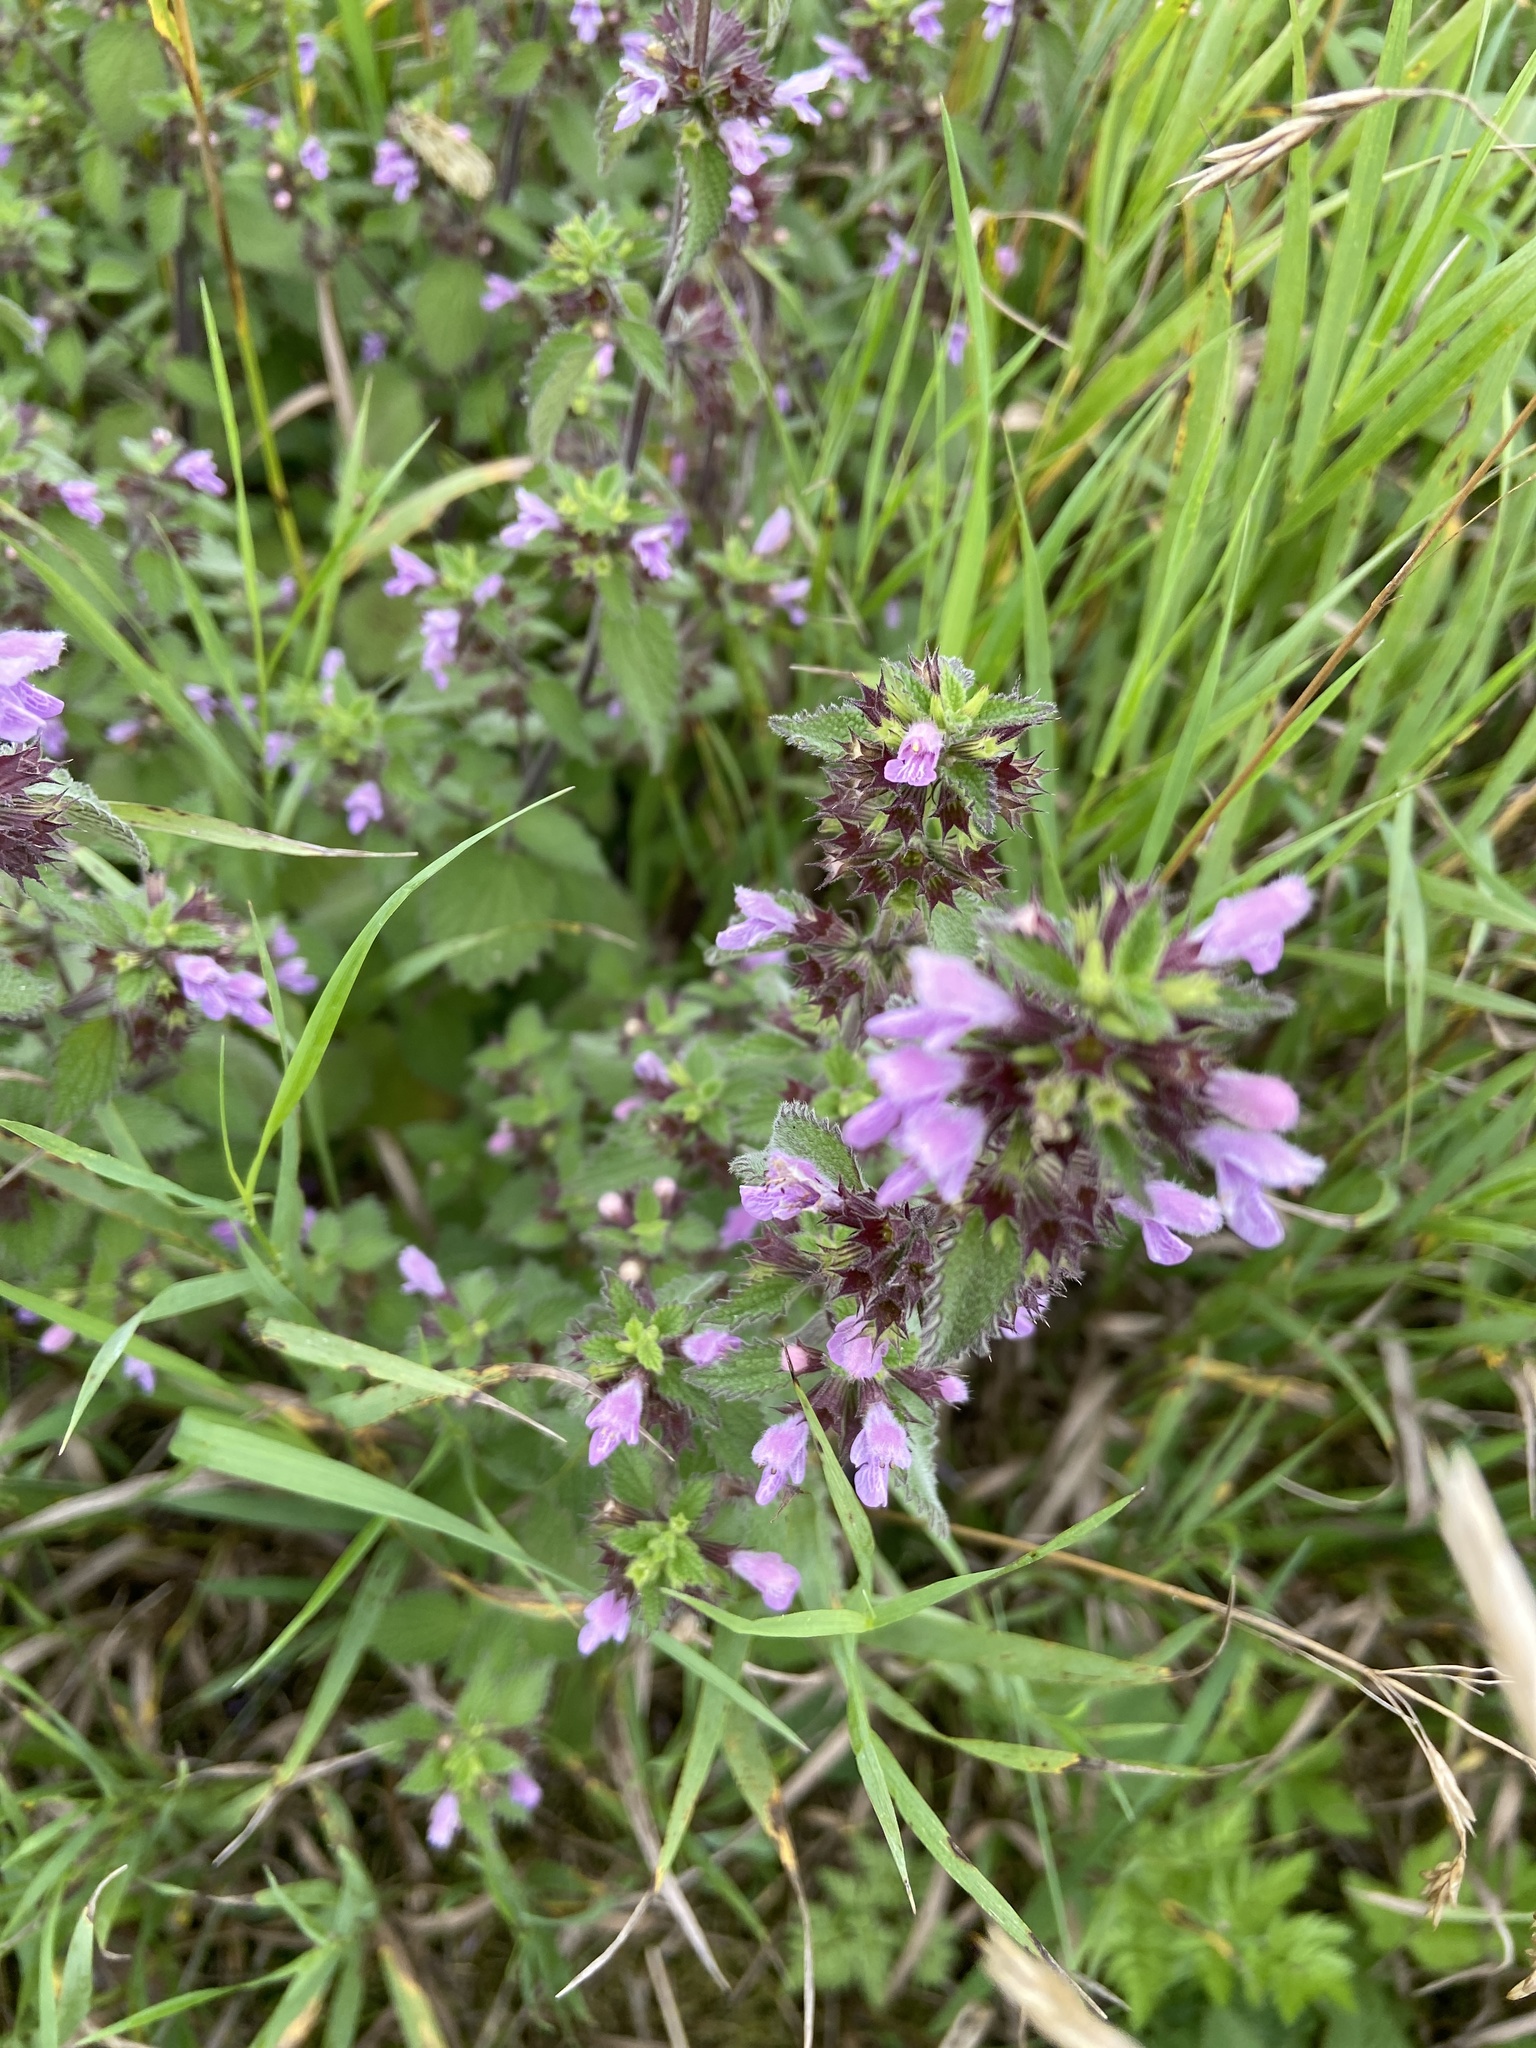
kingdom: Plantae
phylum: Tracheophyta
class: Magnoliopsida
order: Lamiales
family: Lamiaceae
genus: Ballota
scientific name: Ballota nigra
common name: Black horehound
